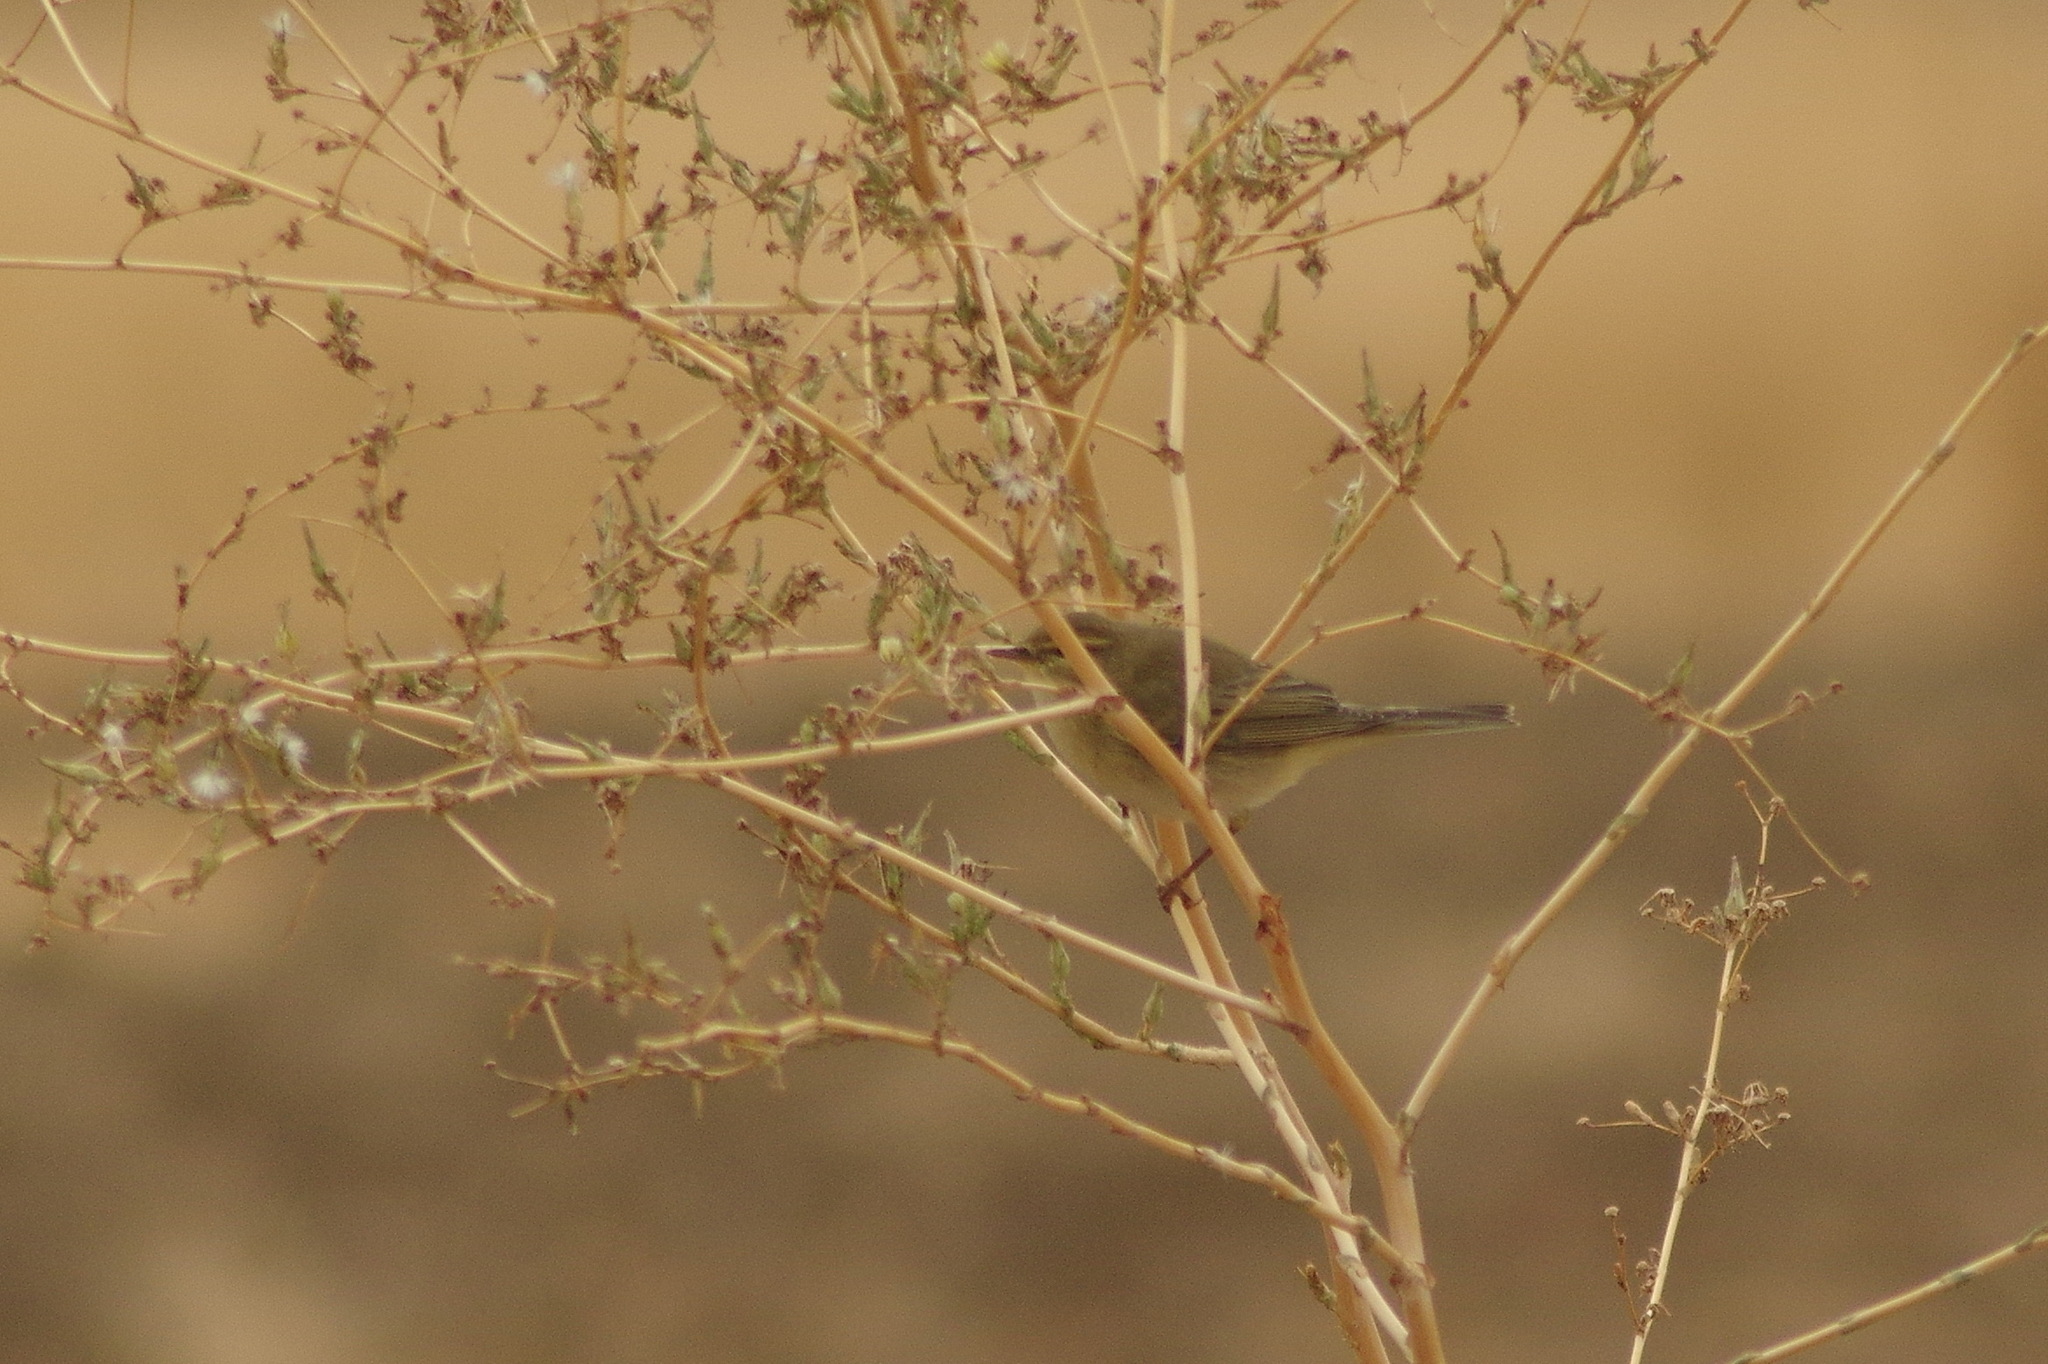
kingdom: Animalia
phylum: Chordata
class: Aves
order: Passeriformes
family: Phylloscopidae
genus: Phylloscopus
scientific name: Phylloscopus trochilus
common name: Willow warbler
